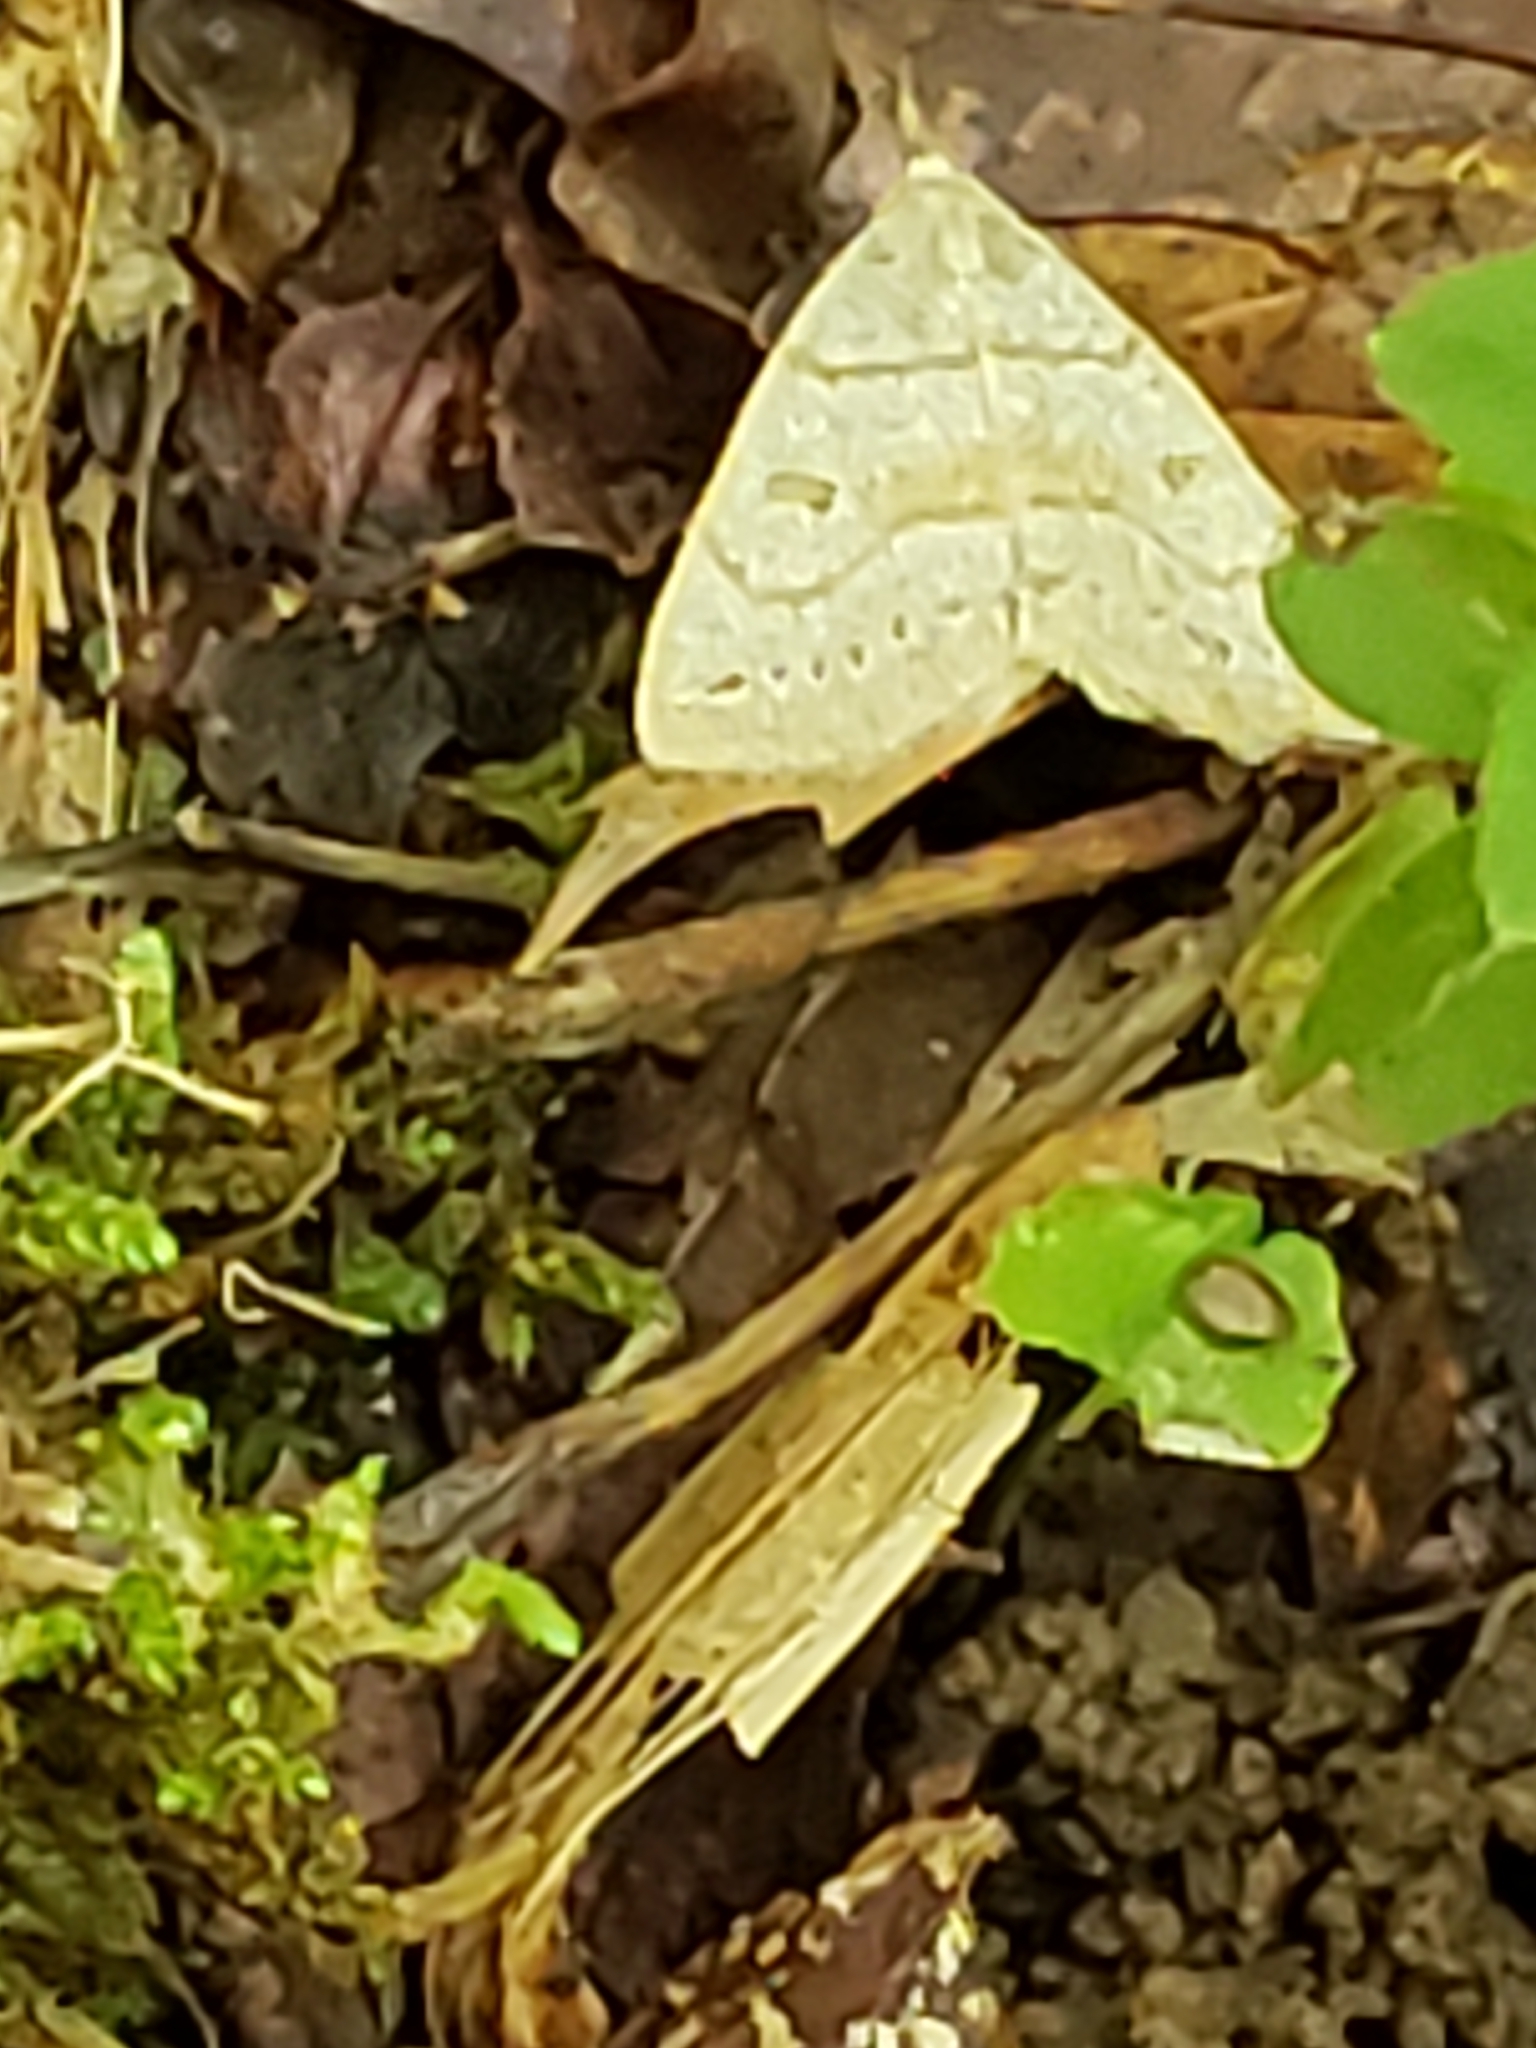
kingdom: Animalia
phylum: Arthropoda
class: Insecta
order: Lepidoptera
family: Erebidae
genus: Macrochilo
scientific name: Macrochilo morbidalis
